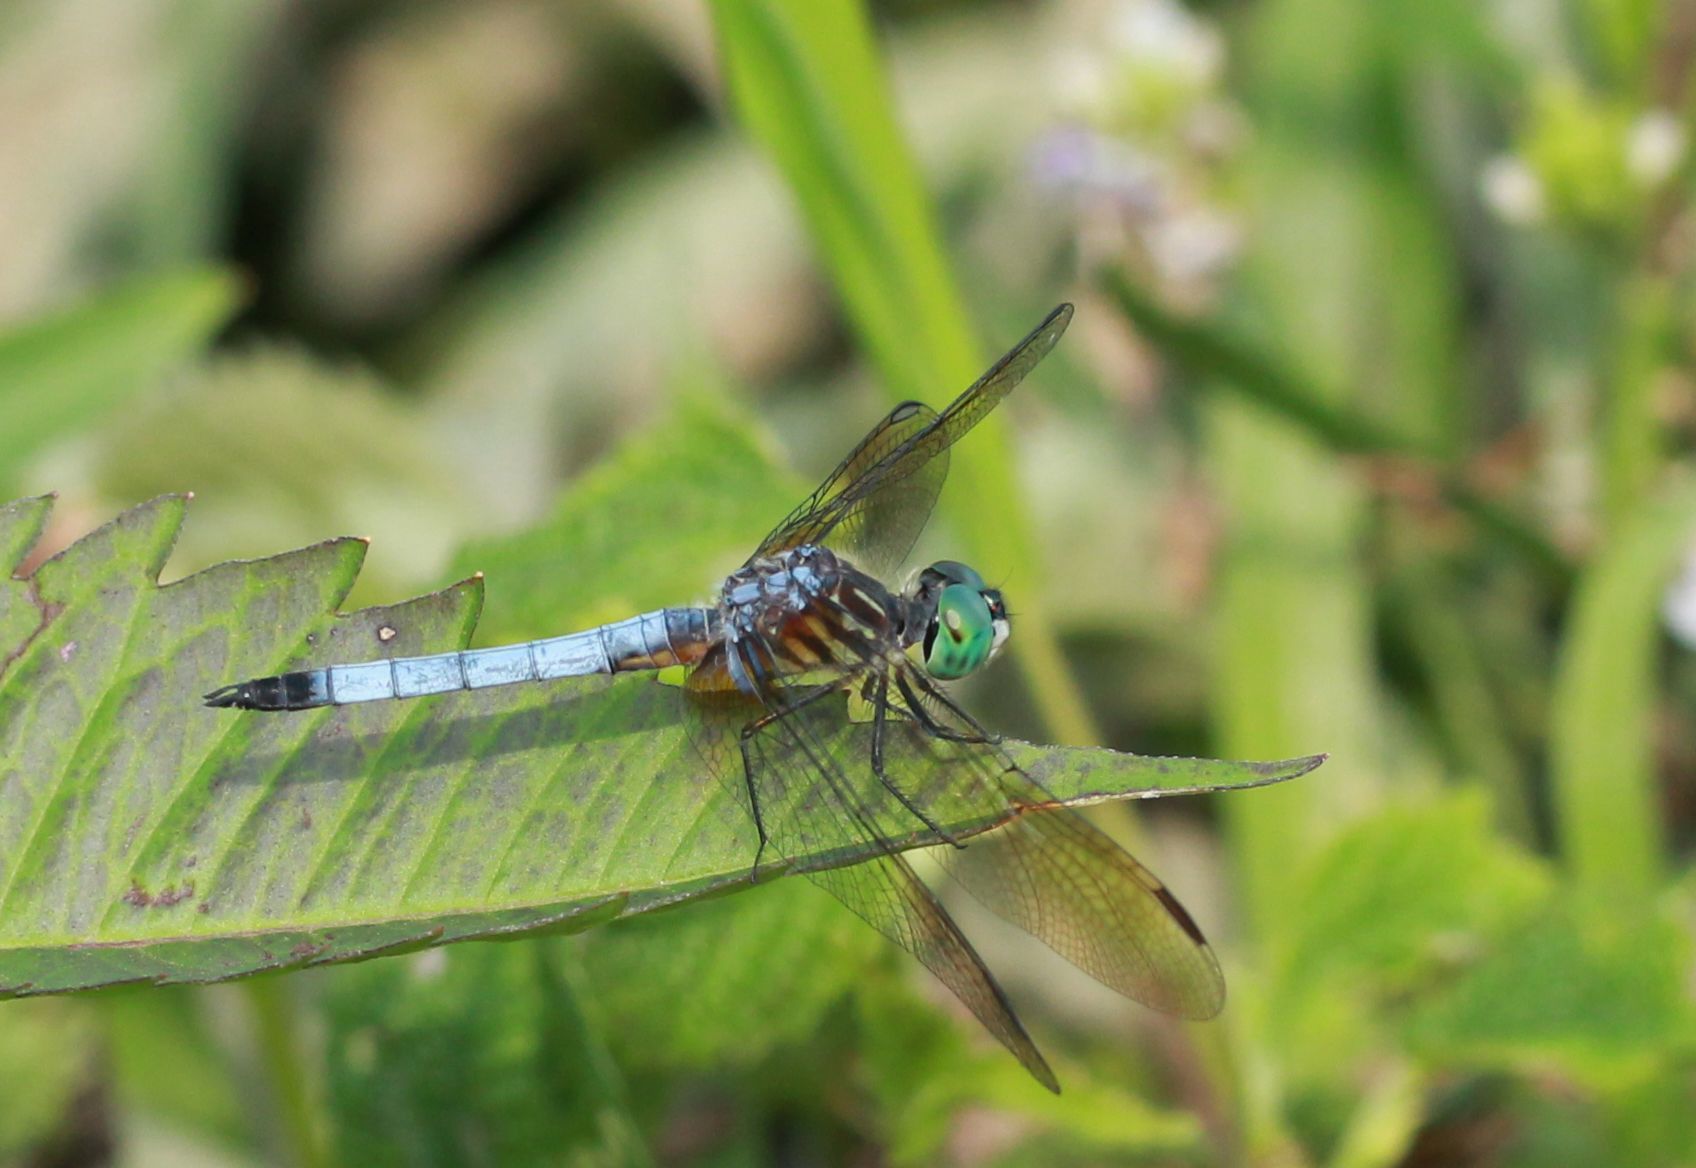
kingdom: Animalia
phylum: Arthropoda
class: Insecta
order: Odonata
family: Libellulidae
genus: Pachydiplax
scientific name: Pachydiplax longipennis
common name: Blue dasher
